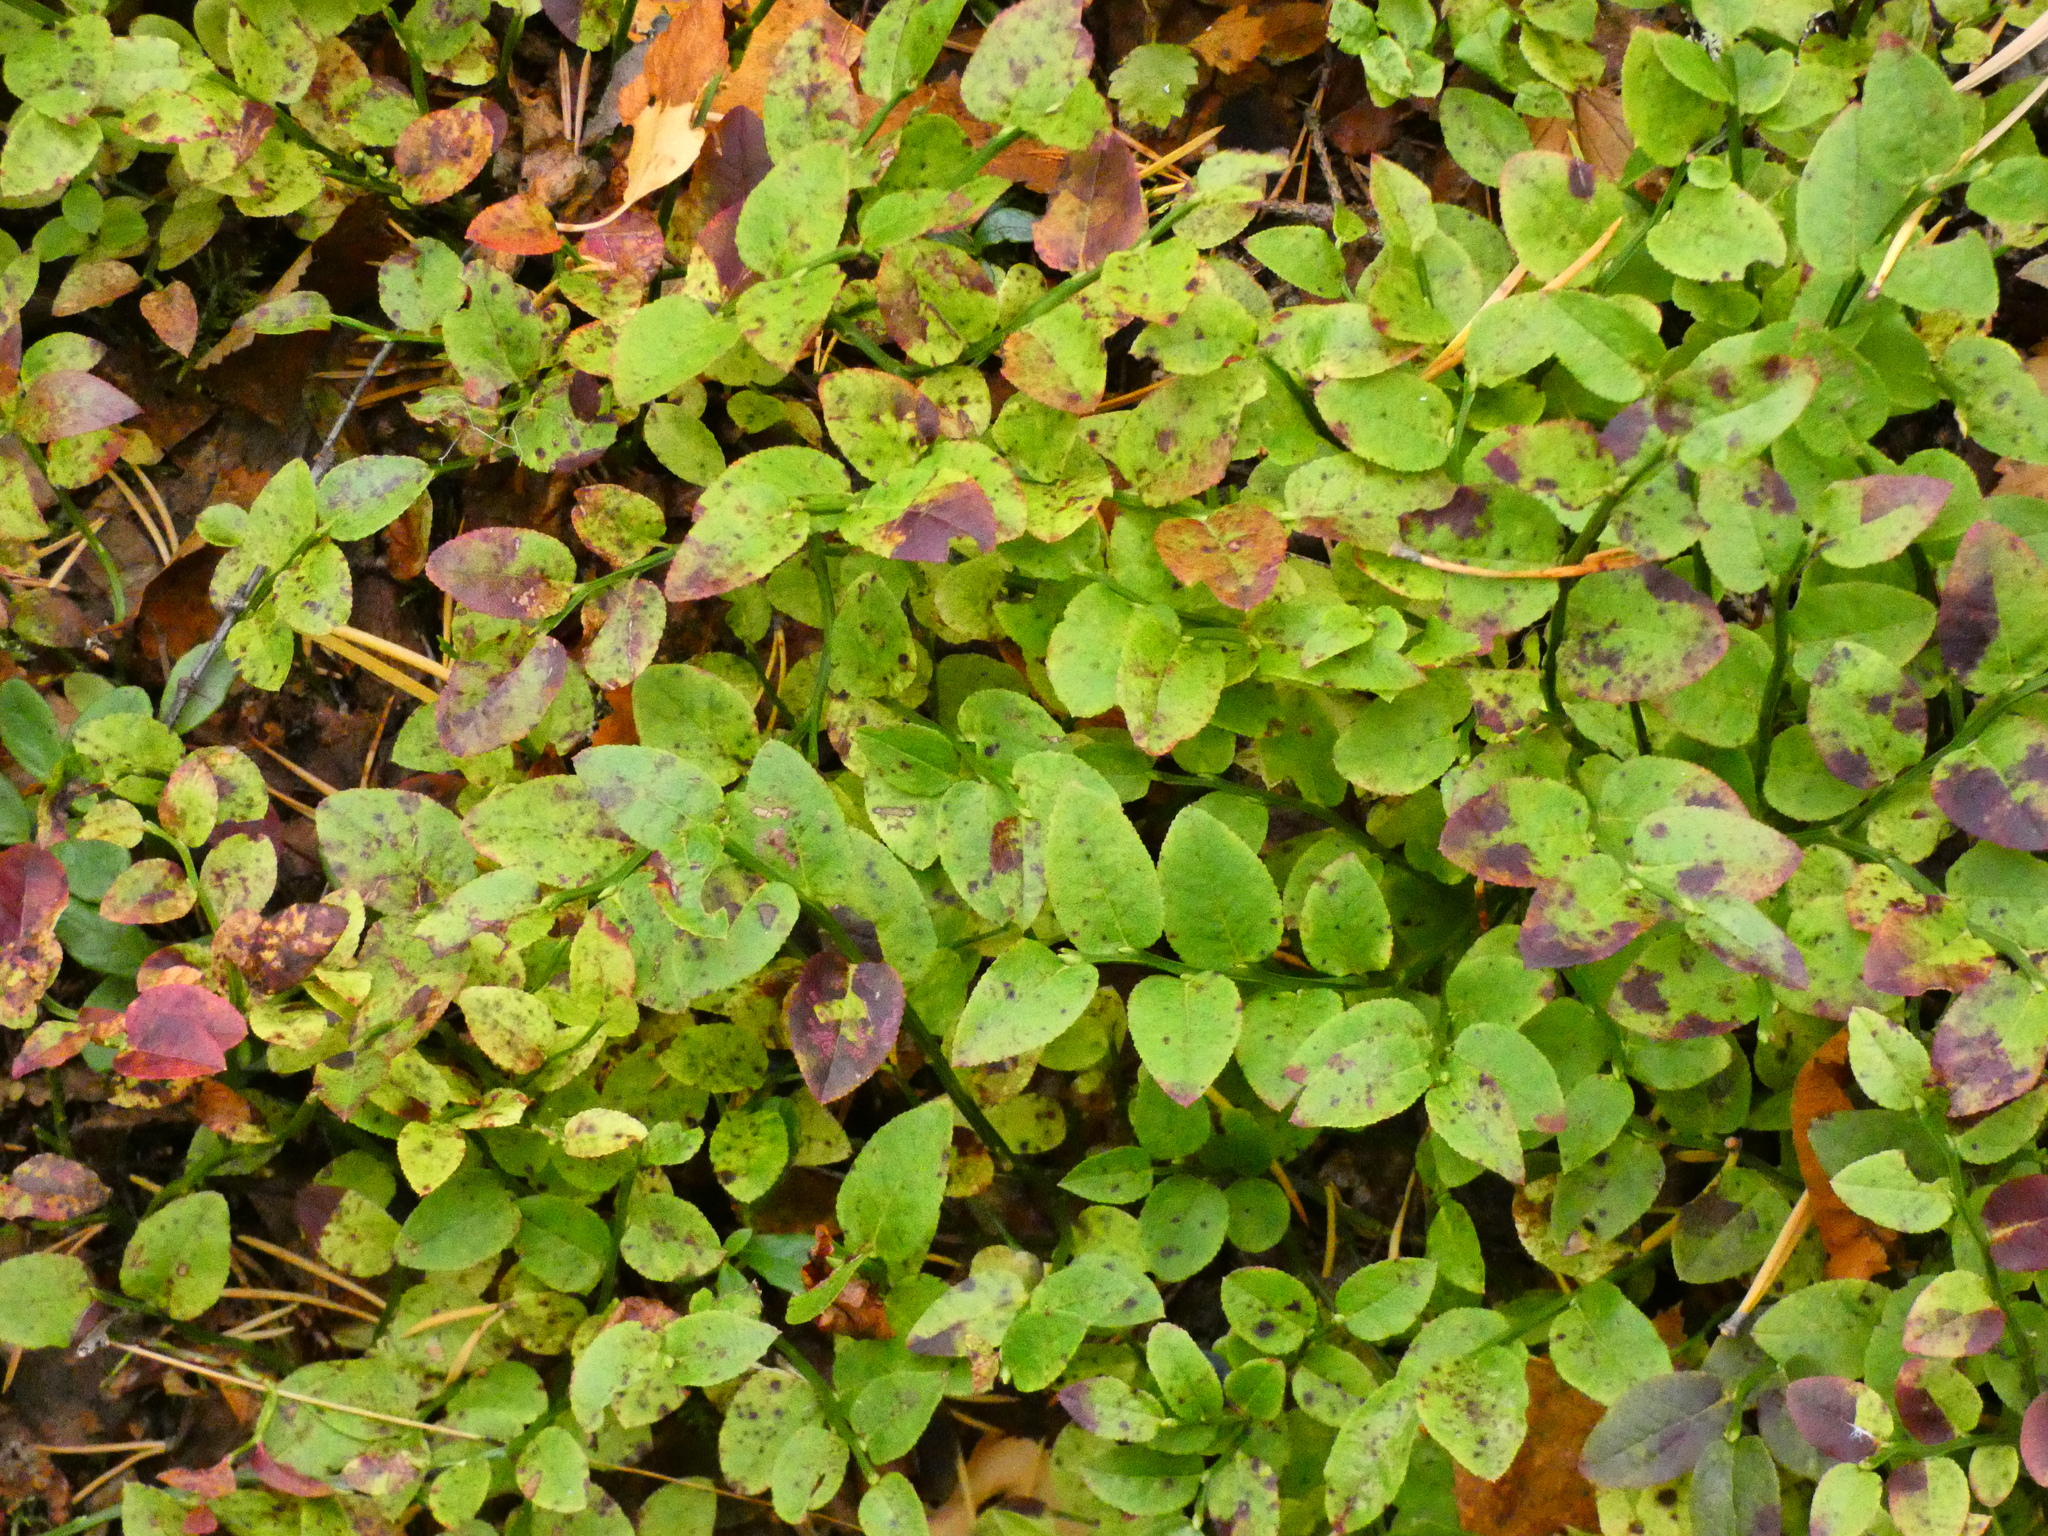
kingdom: Plantae
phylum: Tracheophyta
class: Magnoliopsida
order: Ericales
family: Ericaceae
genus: Vaccinium
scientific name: Vaccinium myrtillus
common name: Bilberry
